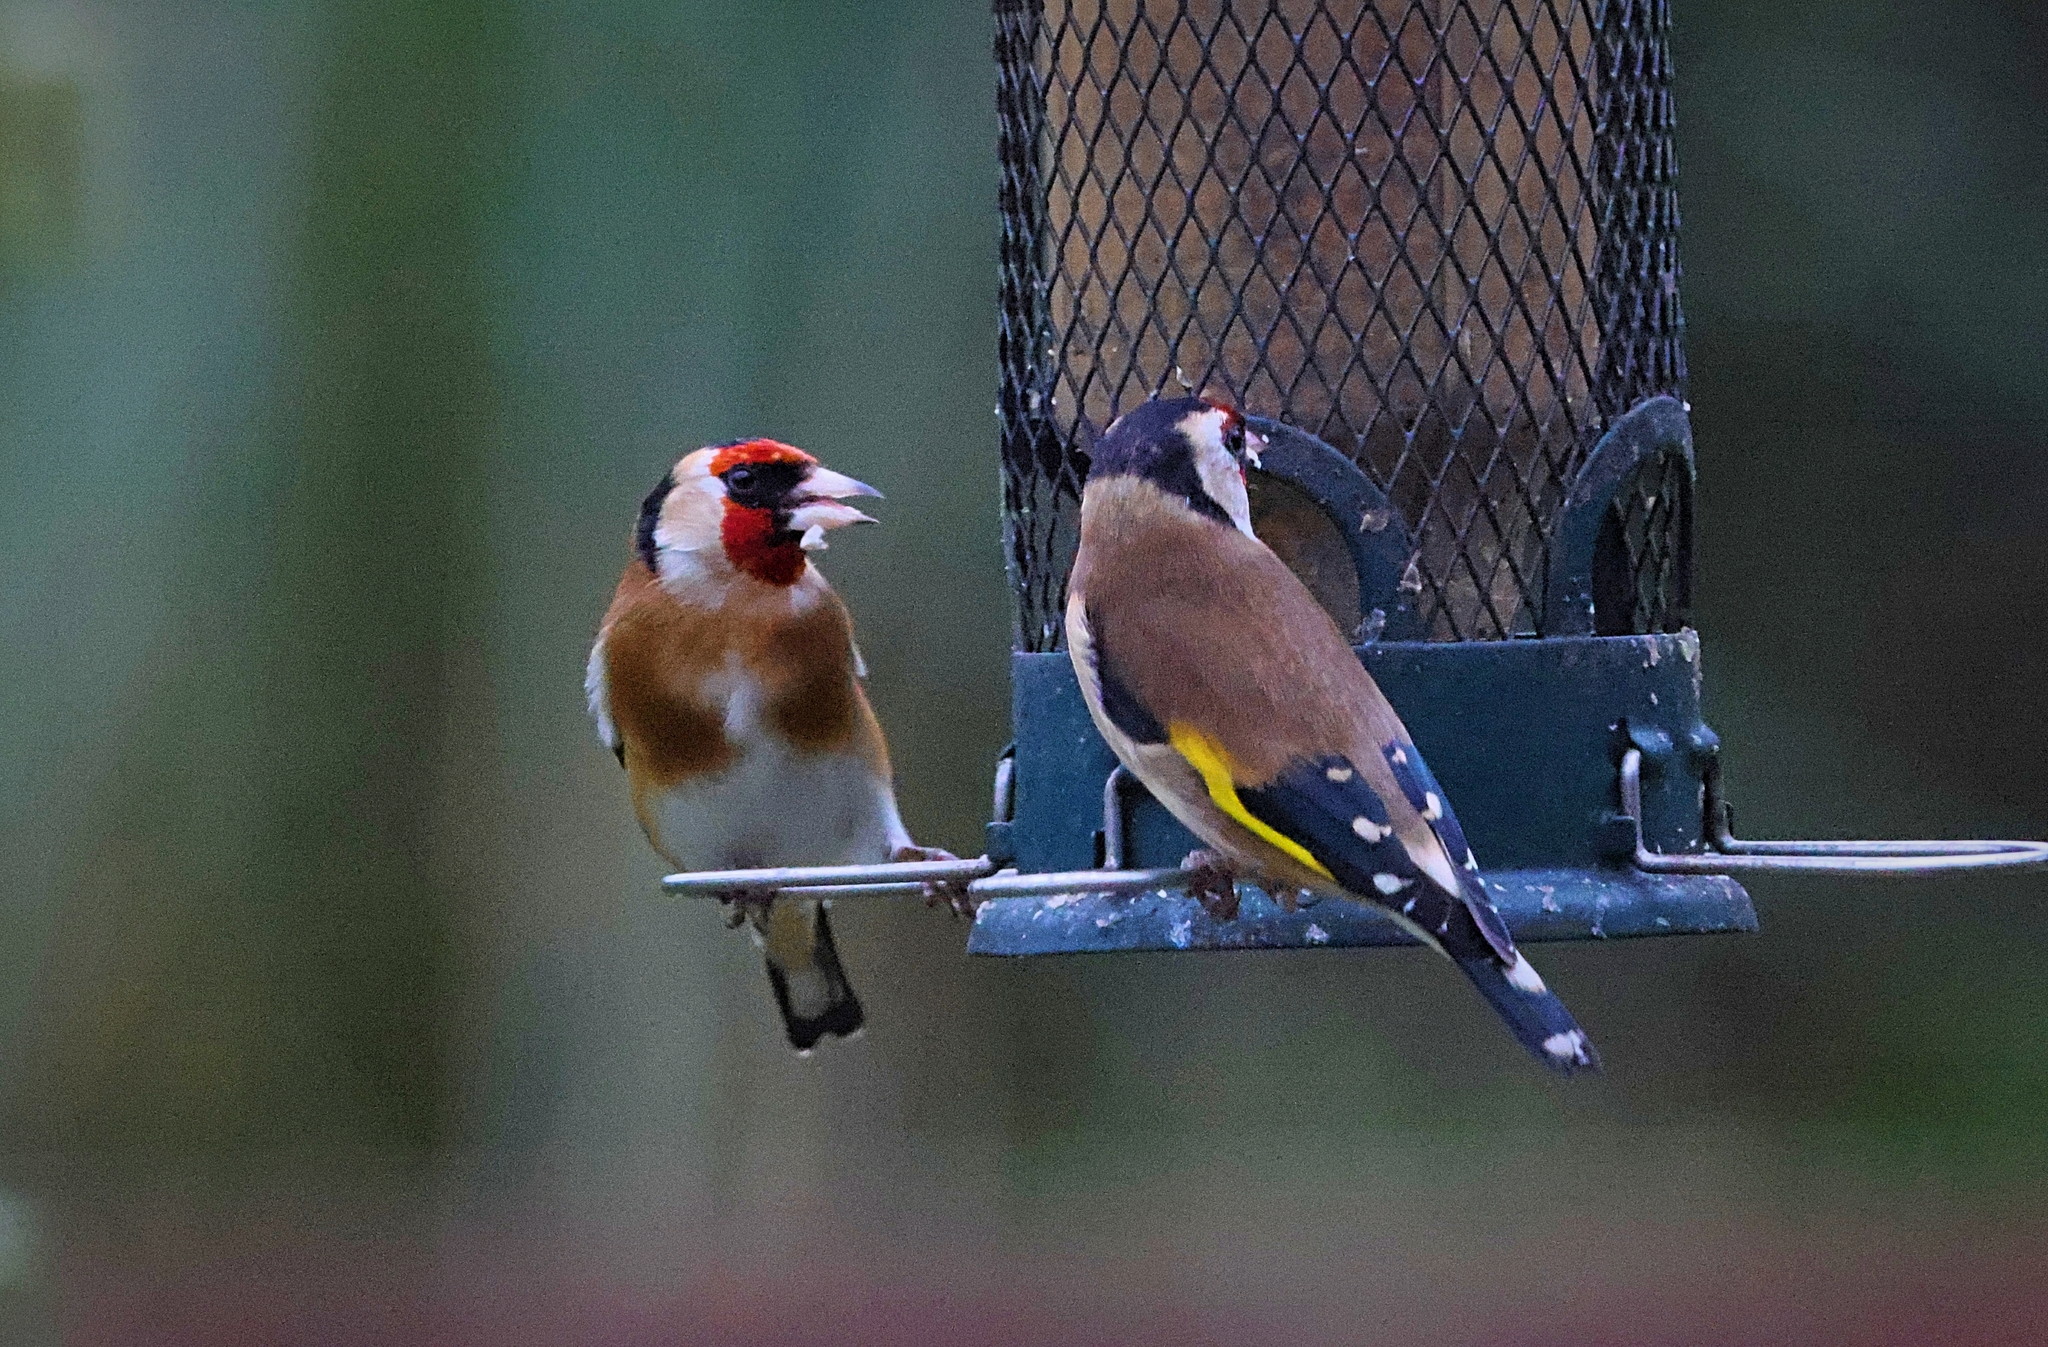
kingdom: Animalia
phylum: Chordata
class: Aves
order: Passeriformes
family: Fringillidae
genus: Carduelis
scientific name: Carduelis carduelis
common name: European goldfinch
